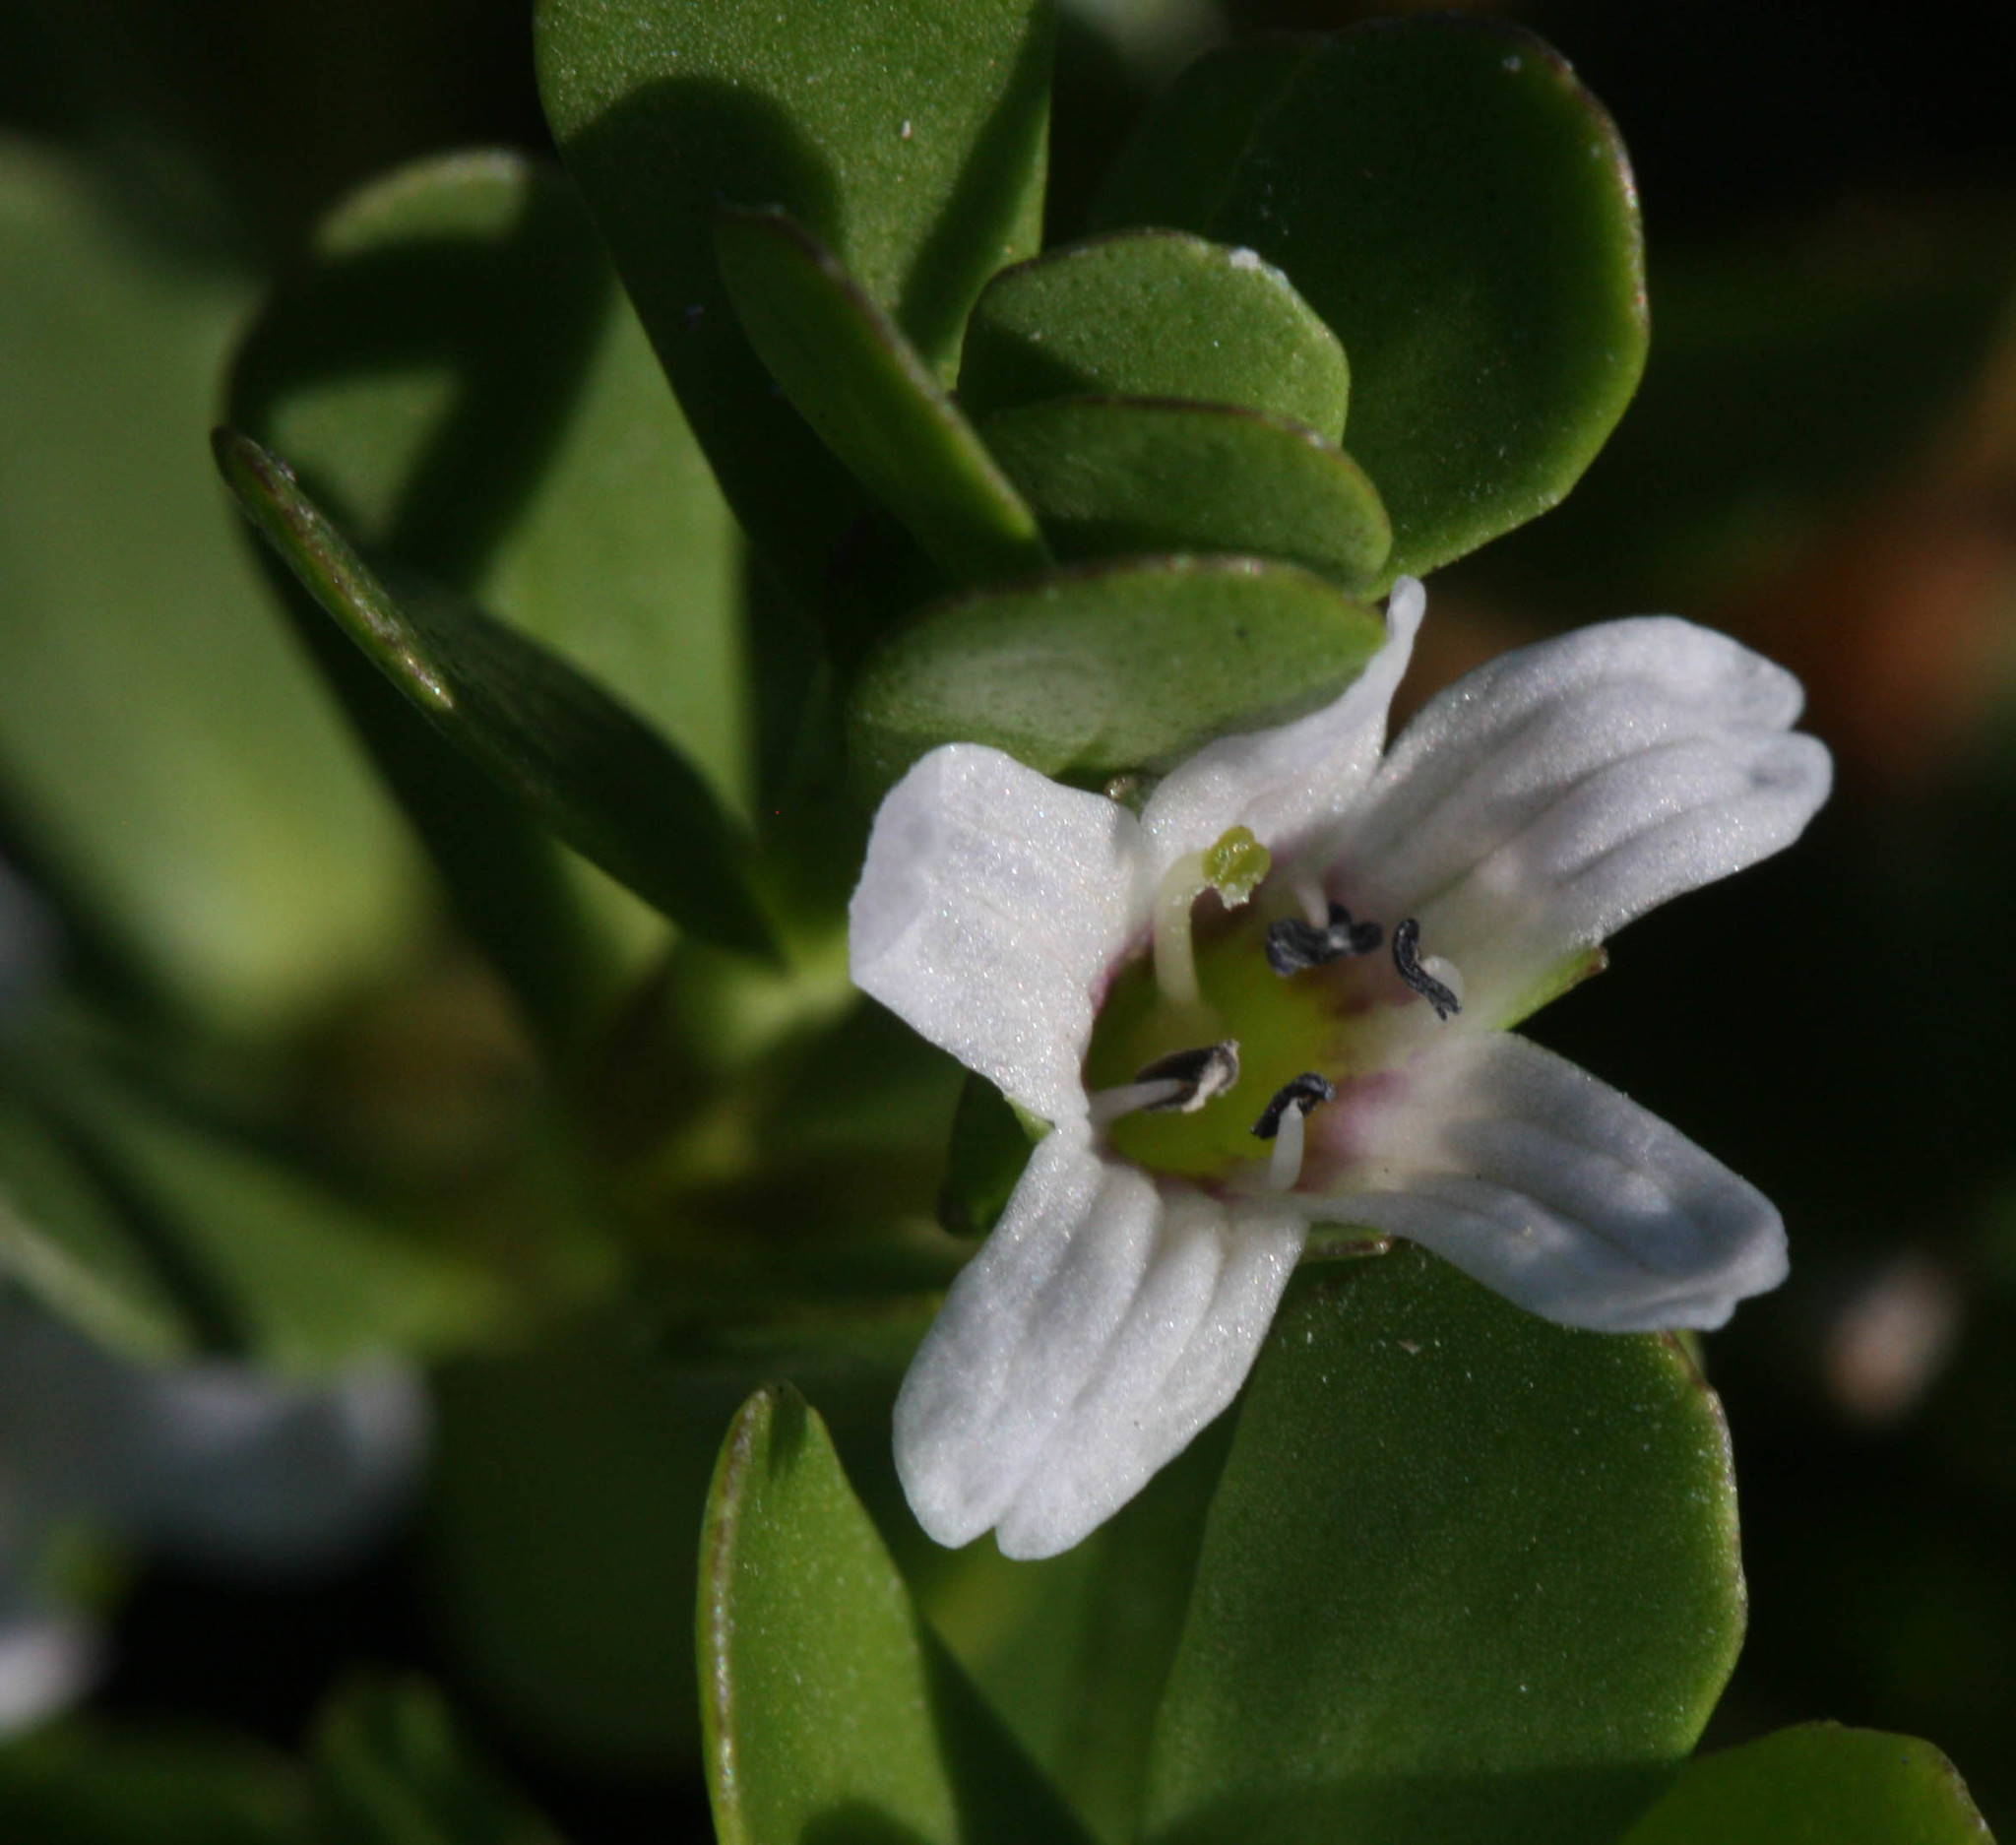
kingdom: Plantae
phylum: Tracheophyta
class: Magnoliopsida
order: Lamiales
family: Plantaginaceae
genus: Bacopa
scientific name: Bacopa monnieri
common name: Indian-pennywort
